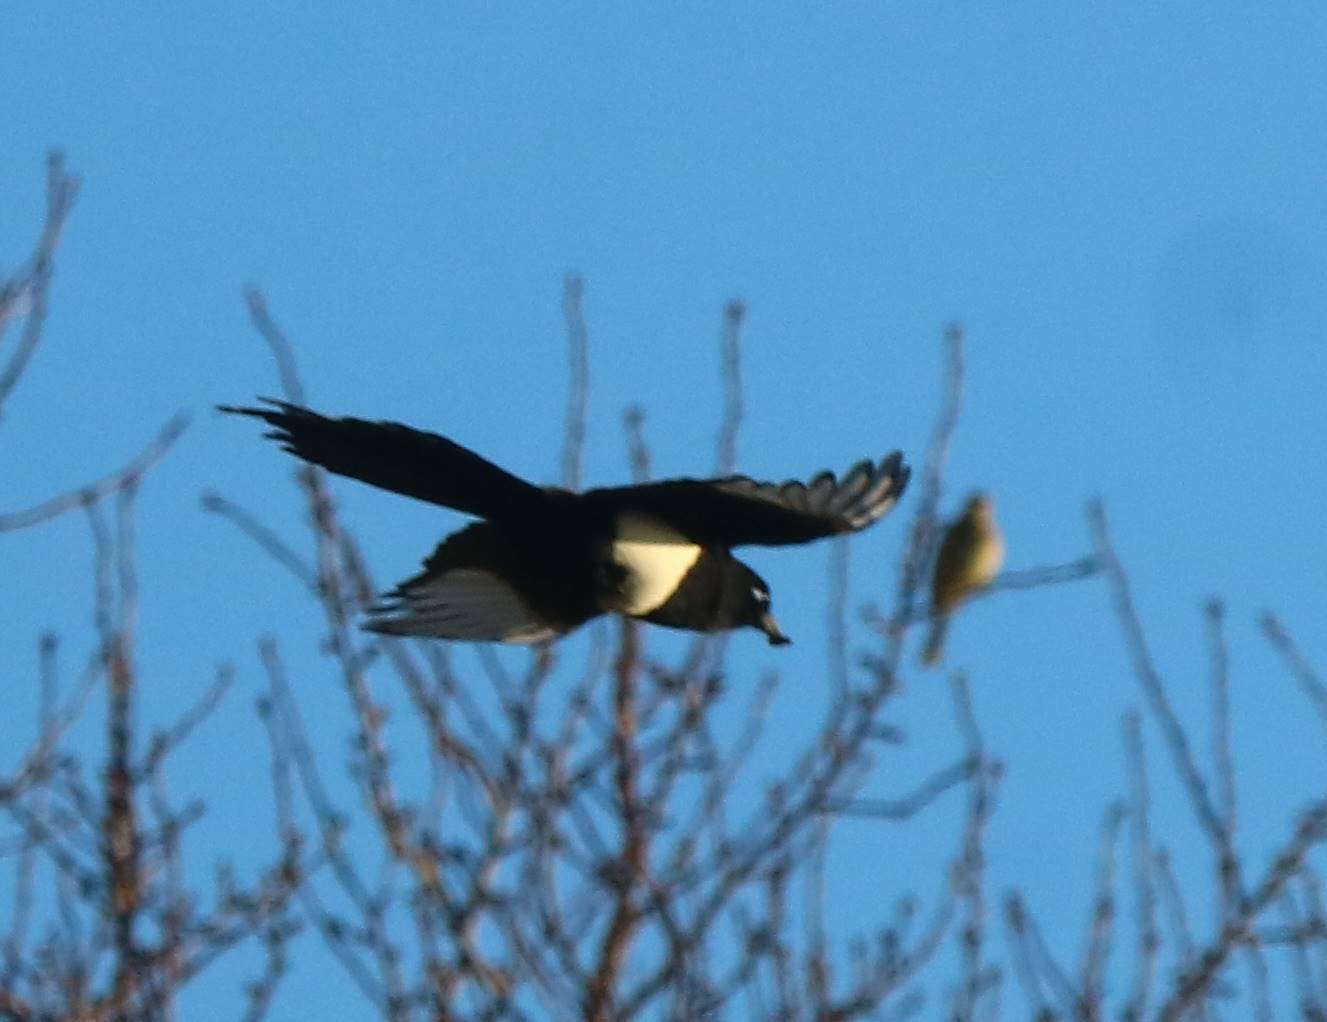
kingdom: Animalia
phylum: Chordata
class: Aves
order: Passeriformes
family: Corvidae
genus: Pica
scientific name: Pica mauritanica
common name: Maghreb magpie
